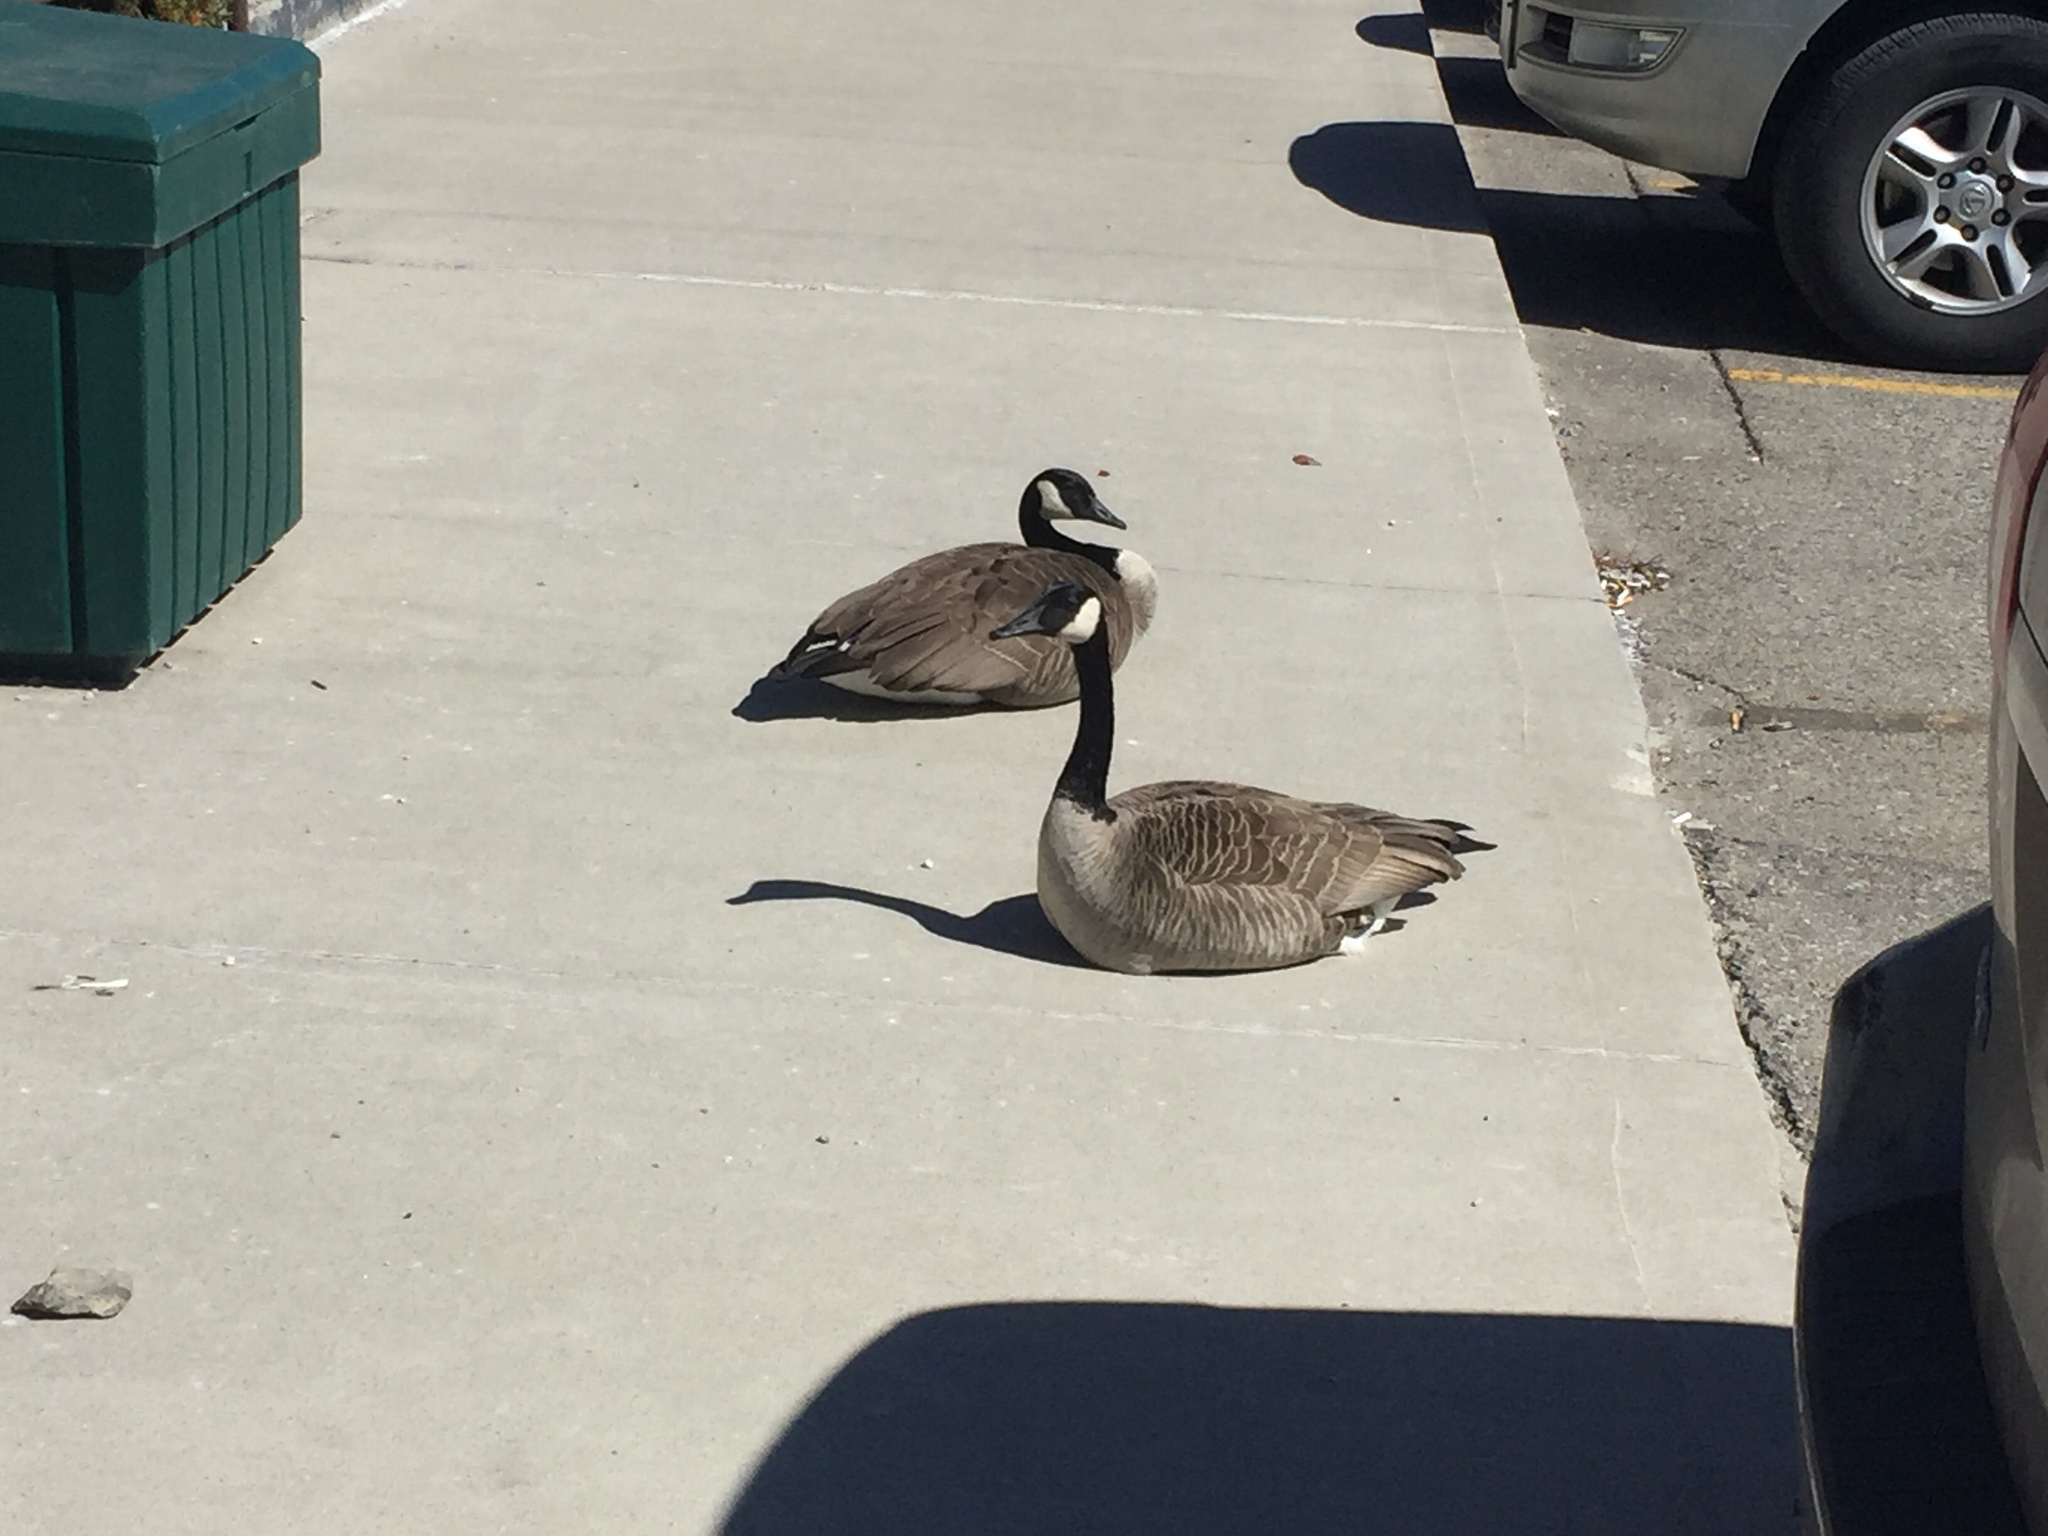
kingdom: Animalia
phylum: Chordata
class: Aves
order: Anseriformes
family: Anatidae
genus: Branta
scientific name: Branta canadensis
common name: Canada goose
